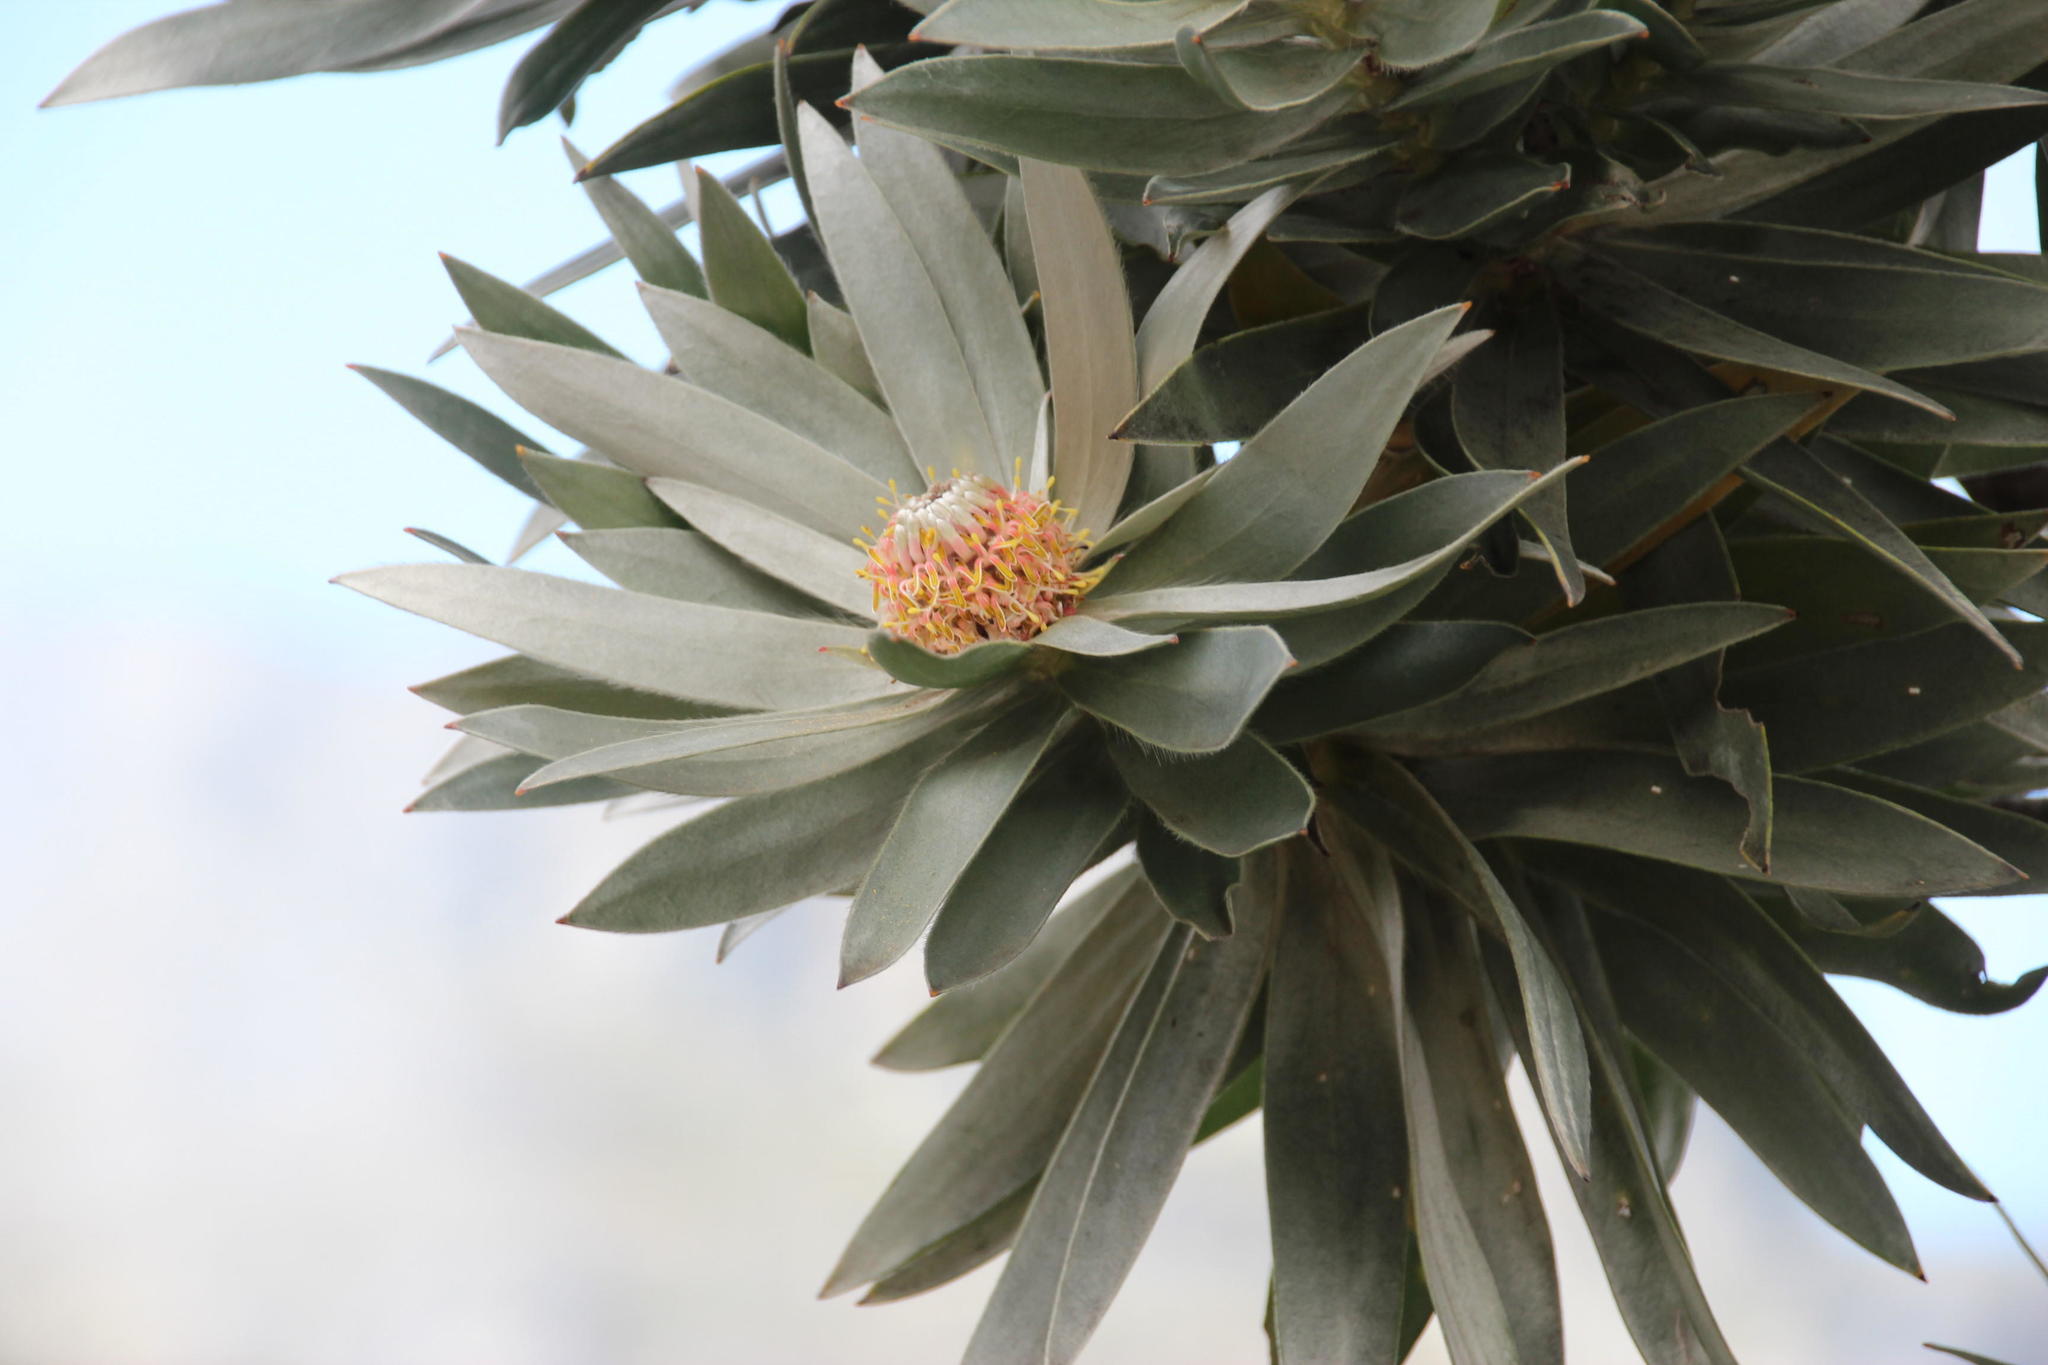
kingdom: Plantae
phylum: Tracheophyta
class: Magnoliopsida
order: Proteales
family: Proteaceae
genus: Leucadendron
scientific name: Leucadendron argenteum
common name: Cape silver tree
